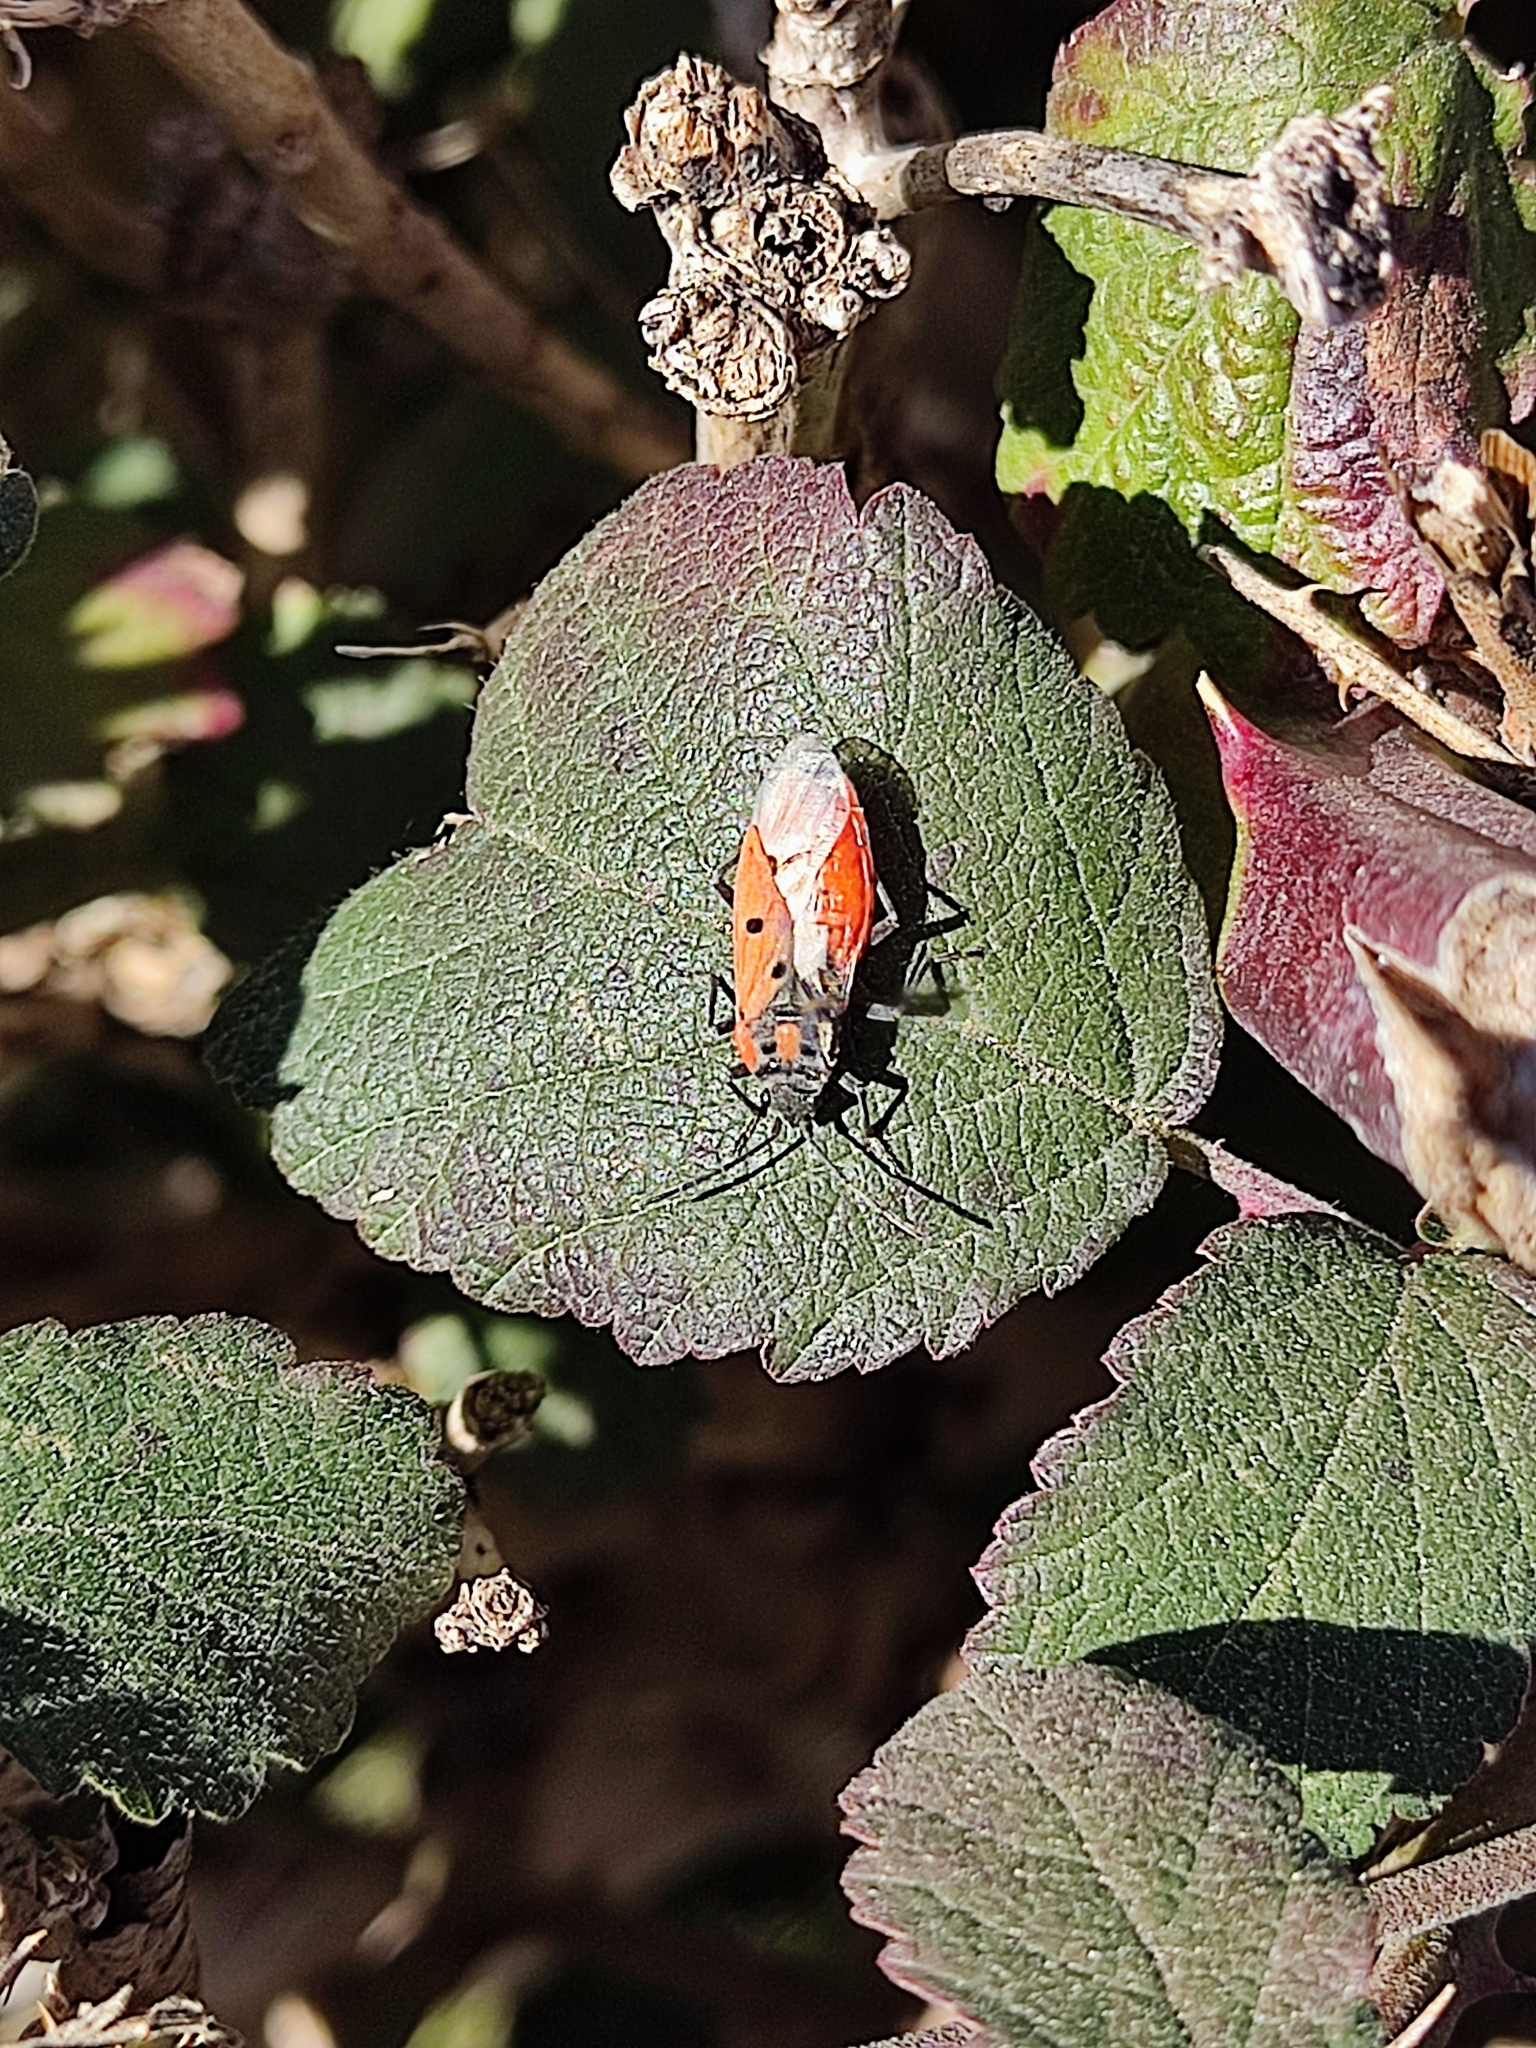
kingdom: Animalia
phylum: Arthropoda
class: Insecta
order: Hemiptera
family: Lygaeidae
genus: Lygaeus
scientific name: Lygaeus creticus
